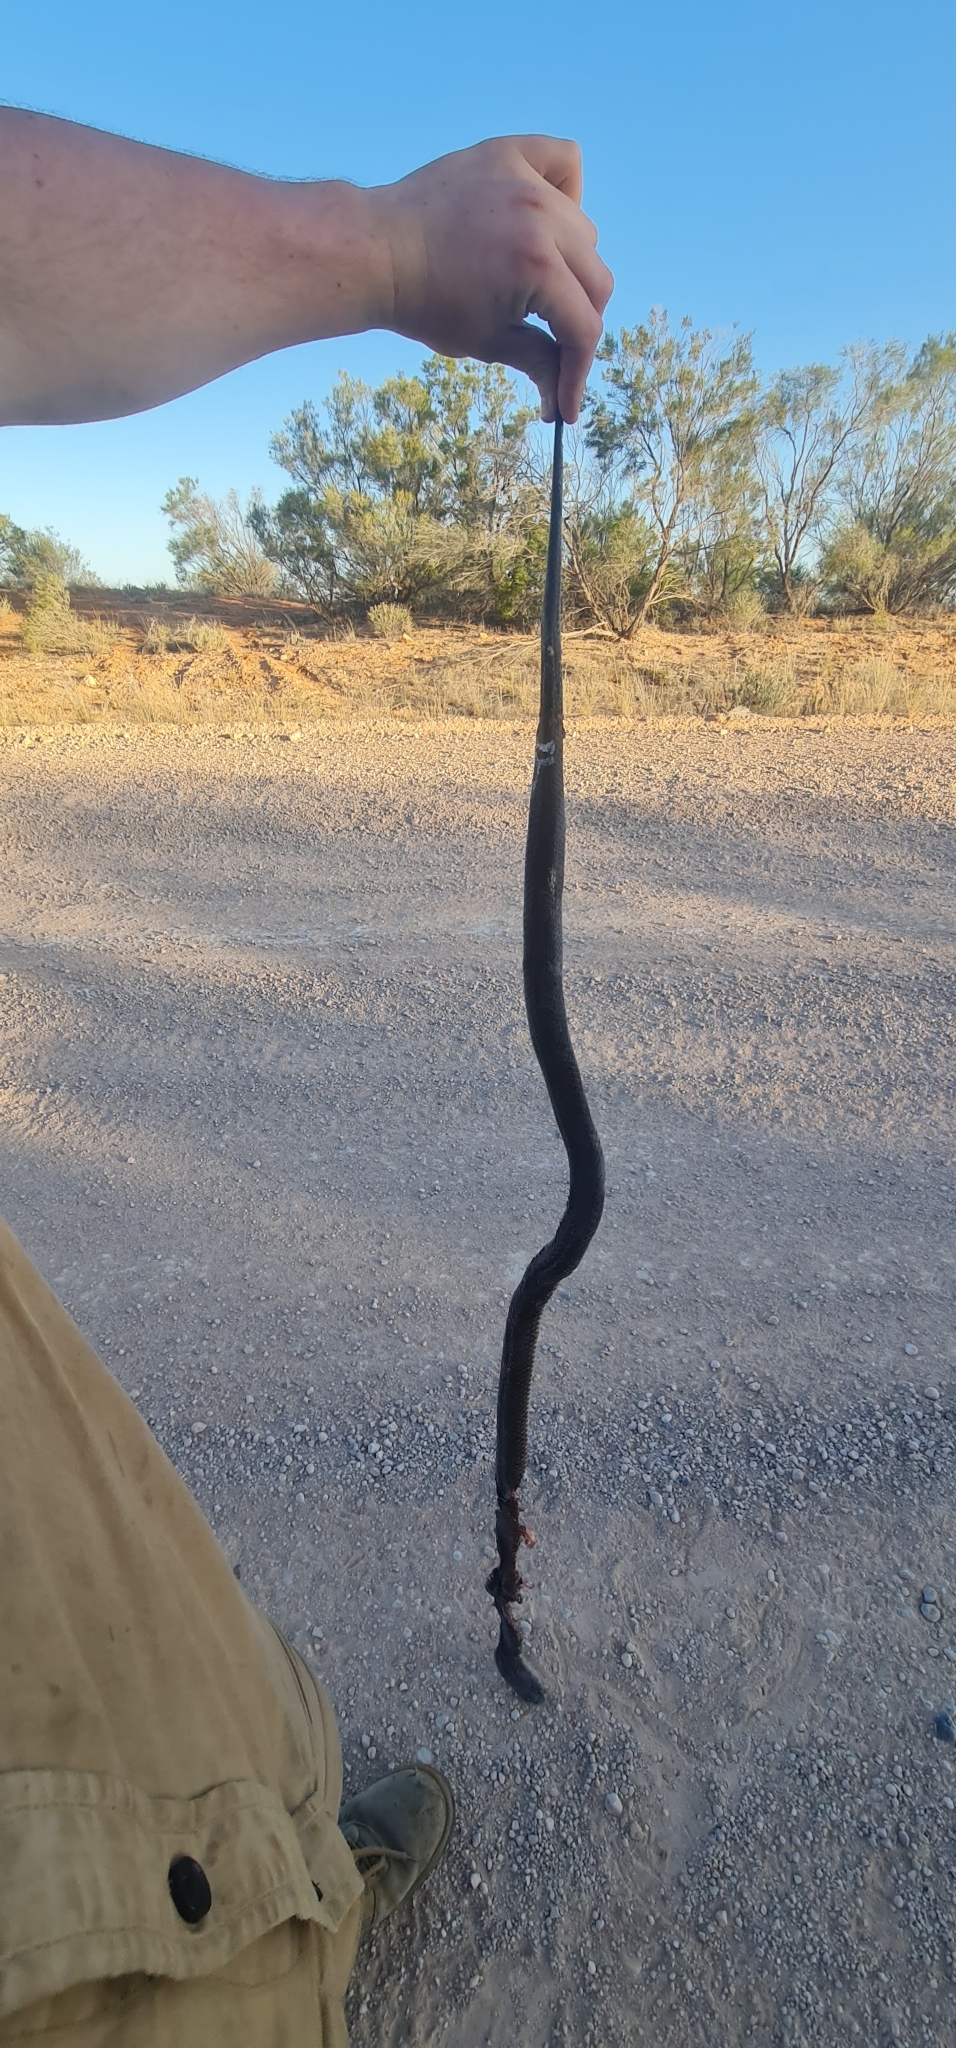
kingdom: Animalia
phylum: Chordata
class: Squamata
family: Elapidae
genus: Pseudechis
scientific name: Pseudechis australis
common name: King brown snake
